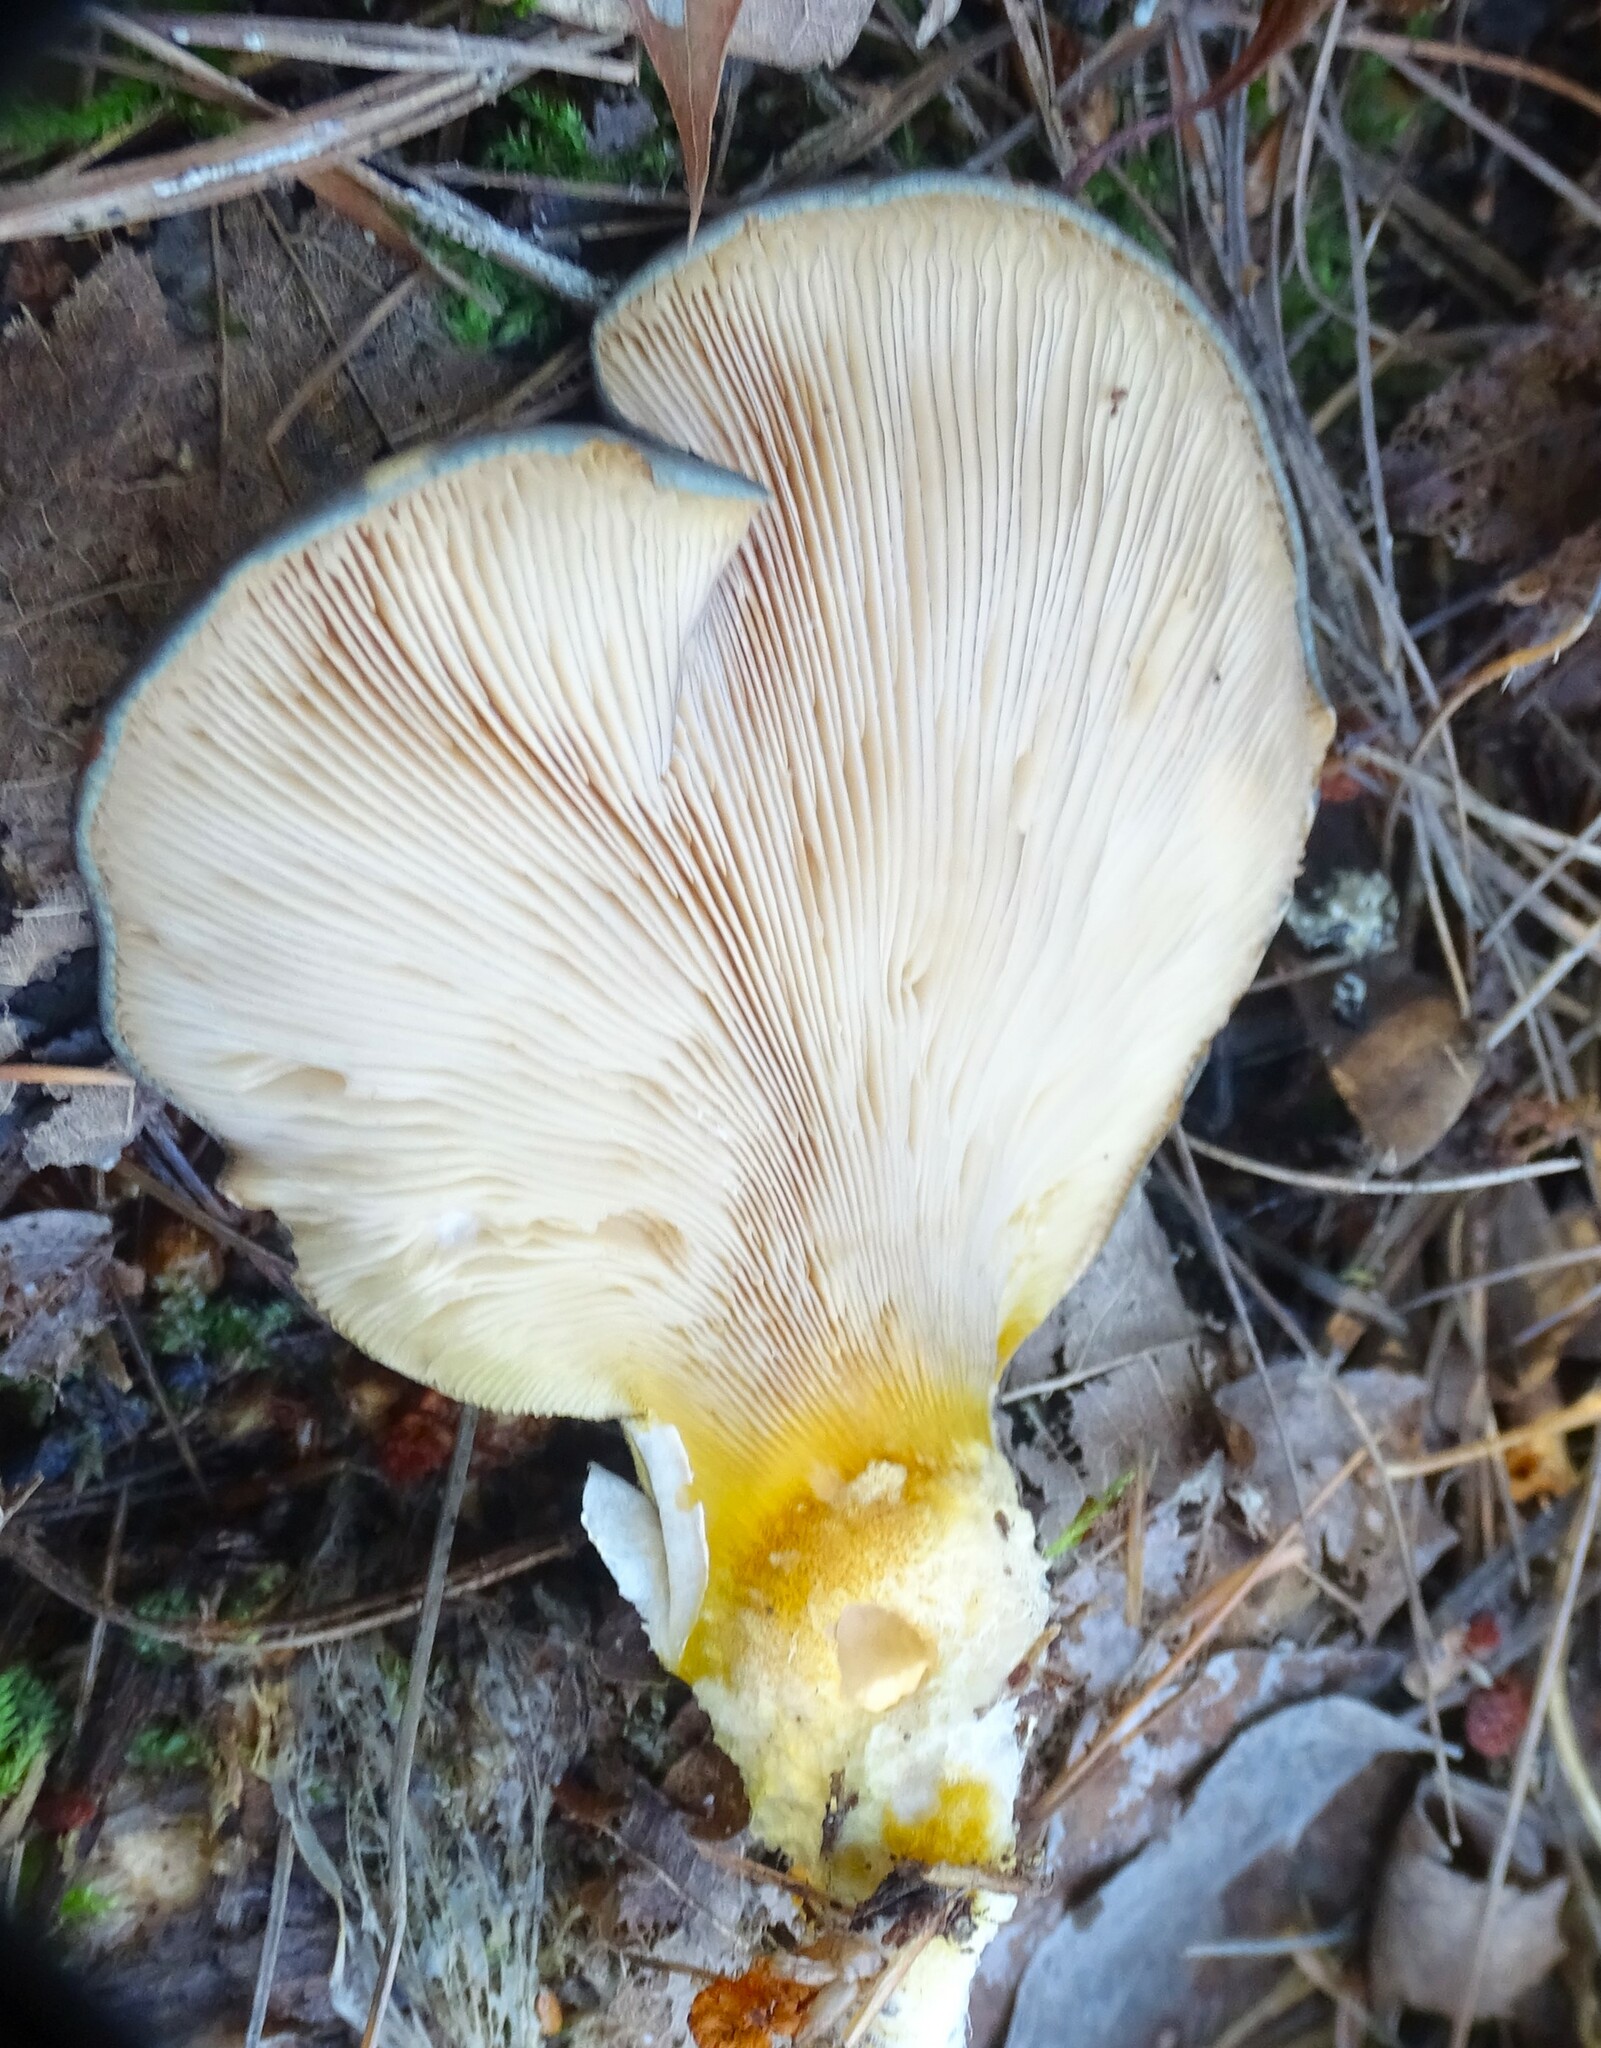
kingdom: Fungi
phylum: Basidiomycota
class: Agaricomycetes
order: Agaricales
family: Sarcomyxaceae
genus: Sarcomyxa
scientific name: Sarcomyxa serotina
